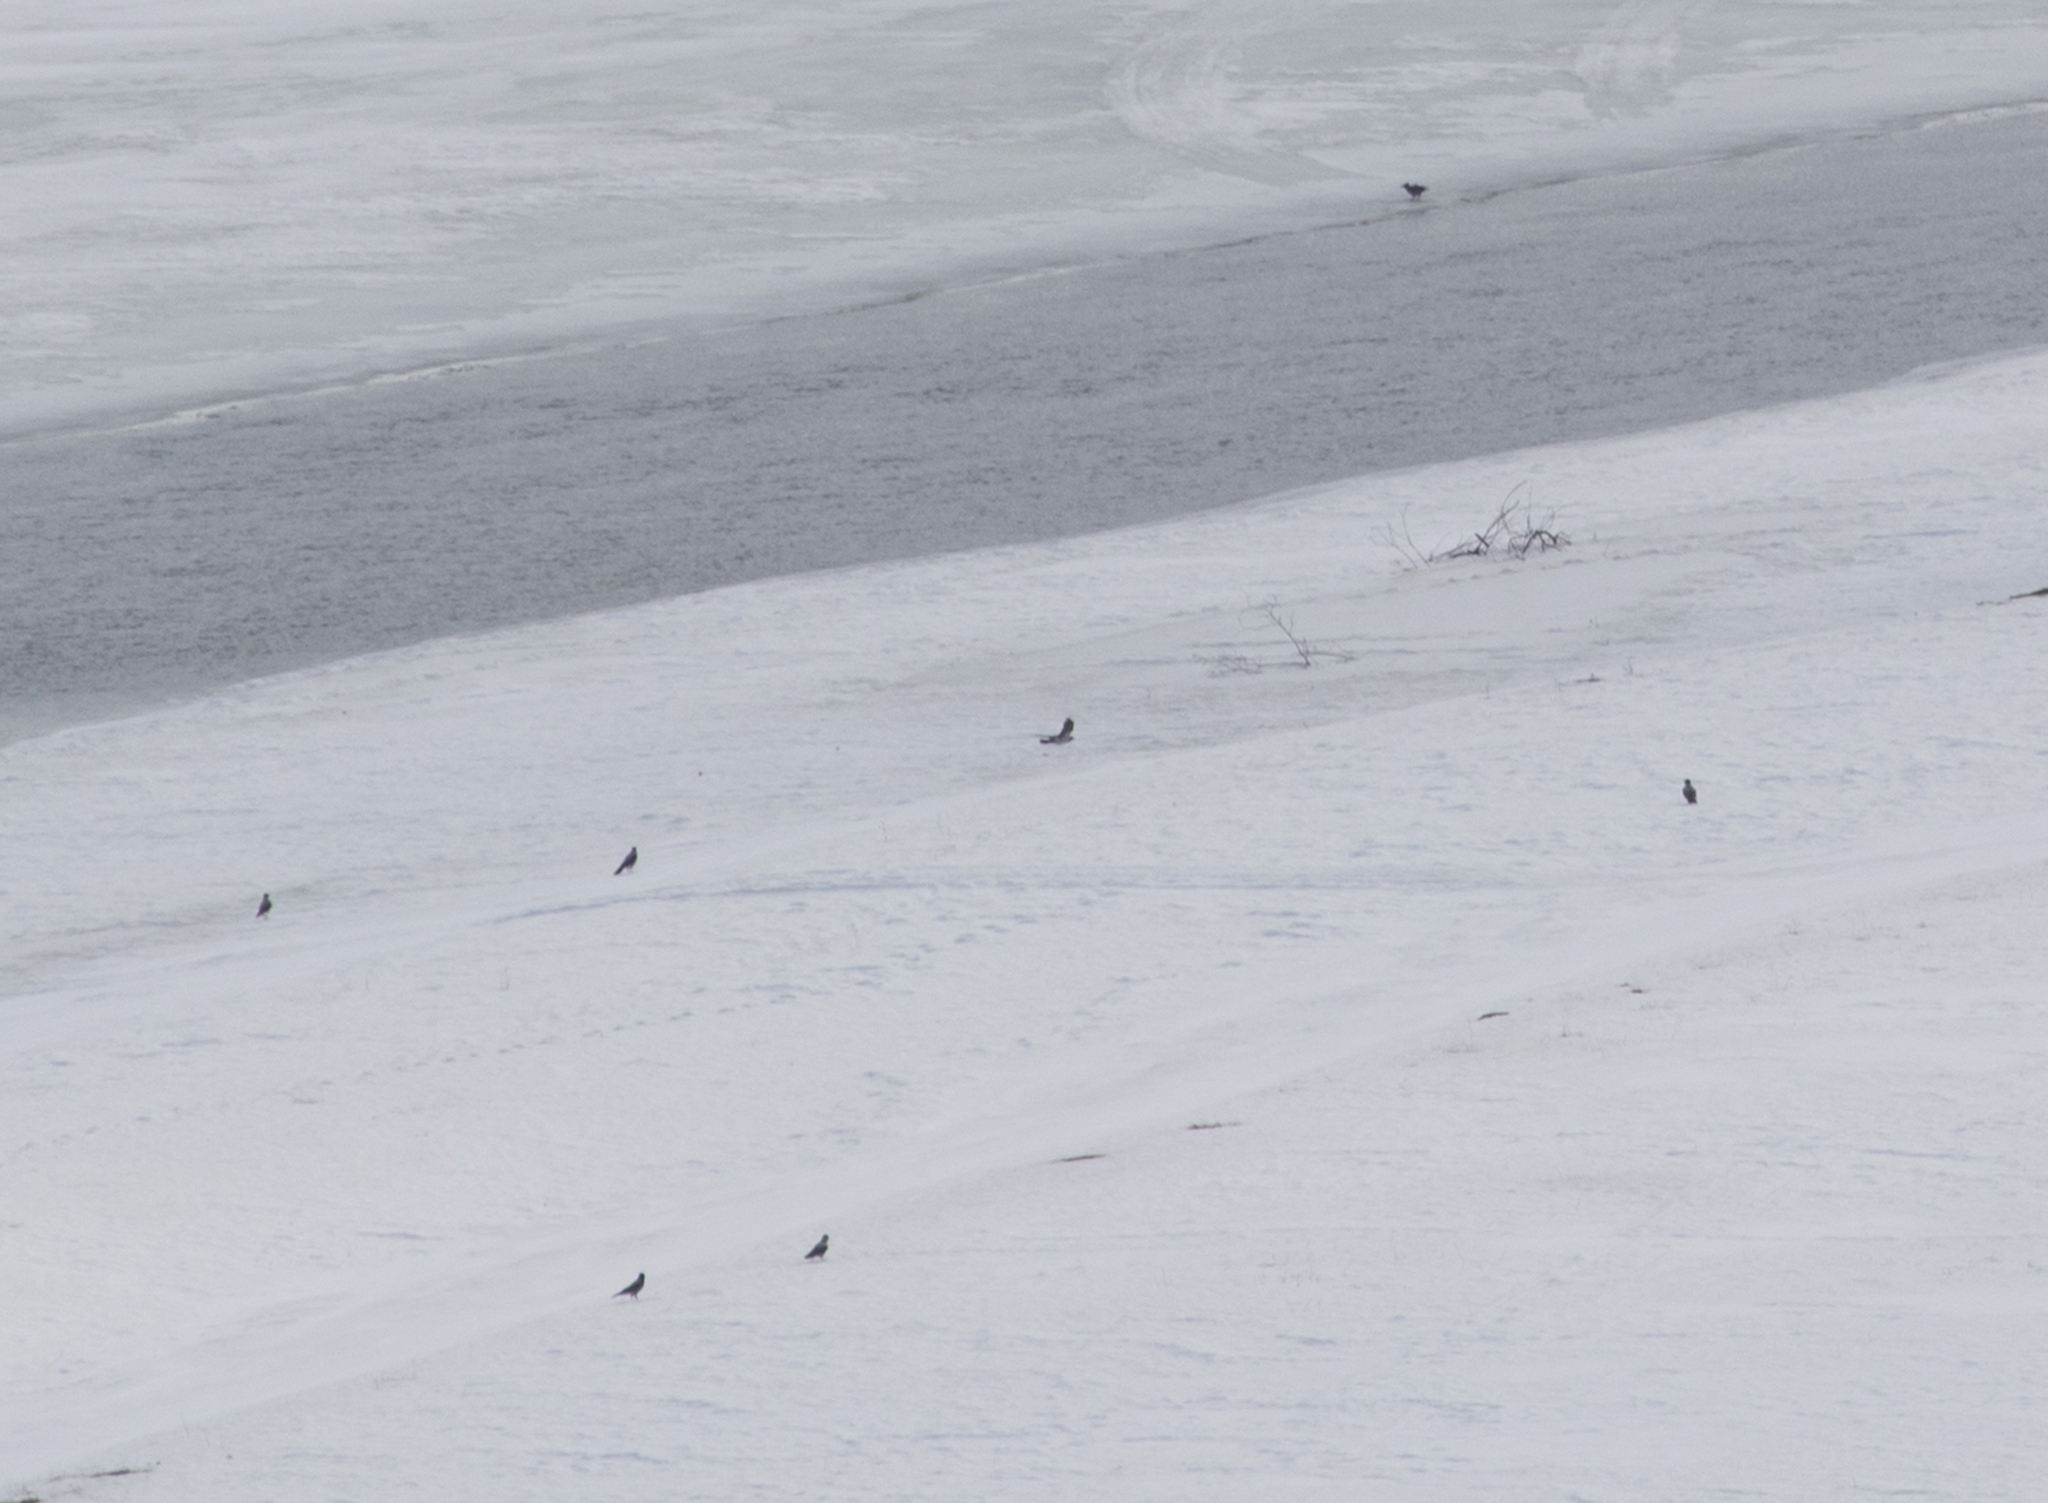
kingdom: Animalia
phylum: Chordata
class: Aves
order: Passeriformes
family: Corvidae
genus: Corvus
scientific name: Corvus cornix
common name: Hooded crow
